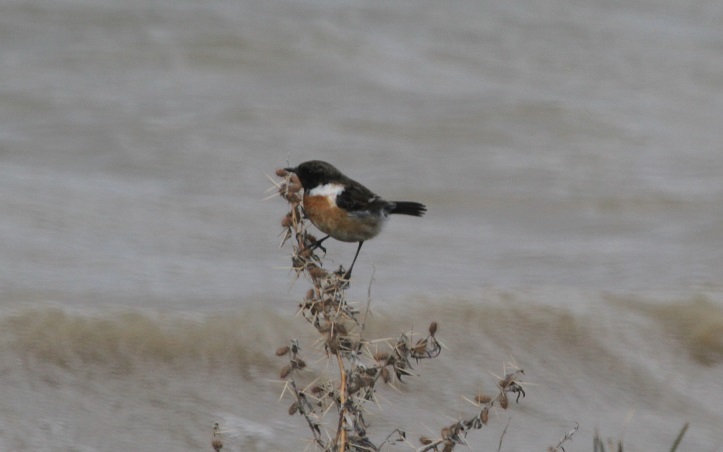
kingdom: Animalia
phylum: Chordata
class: Aves
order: Passeriformes
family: Muscicapidae
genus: Saxicola
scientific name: Saxicola rubicola
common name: European stonechat
